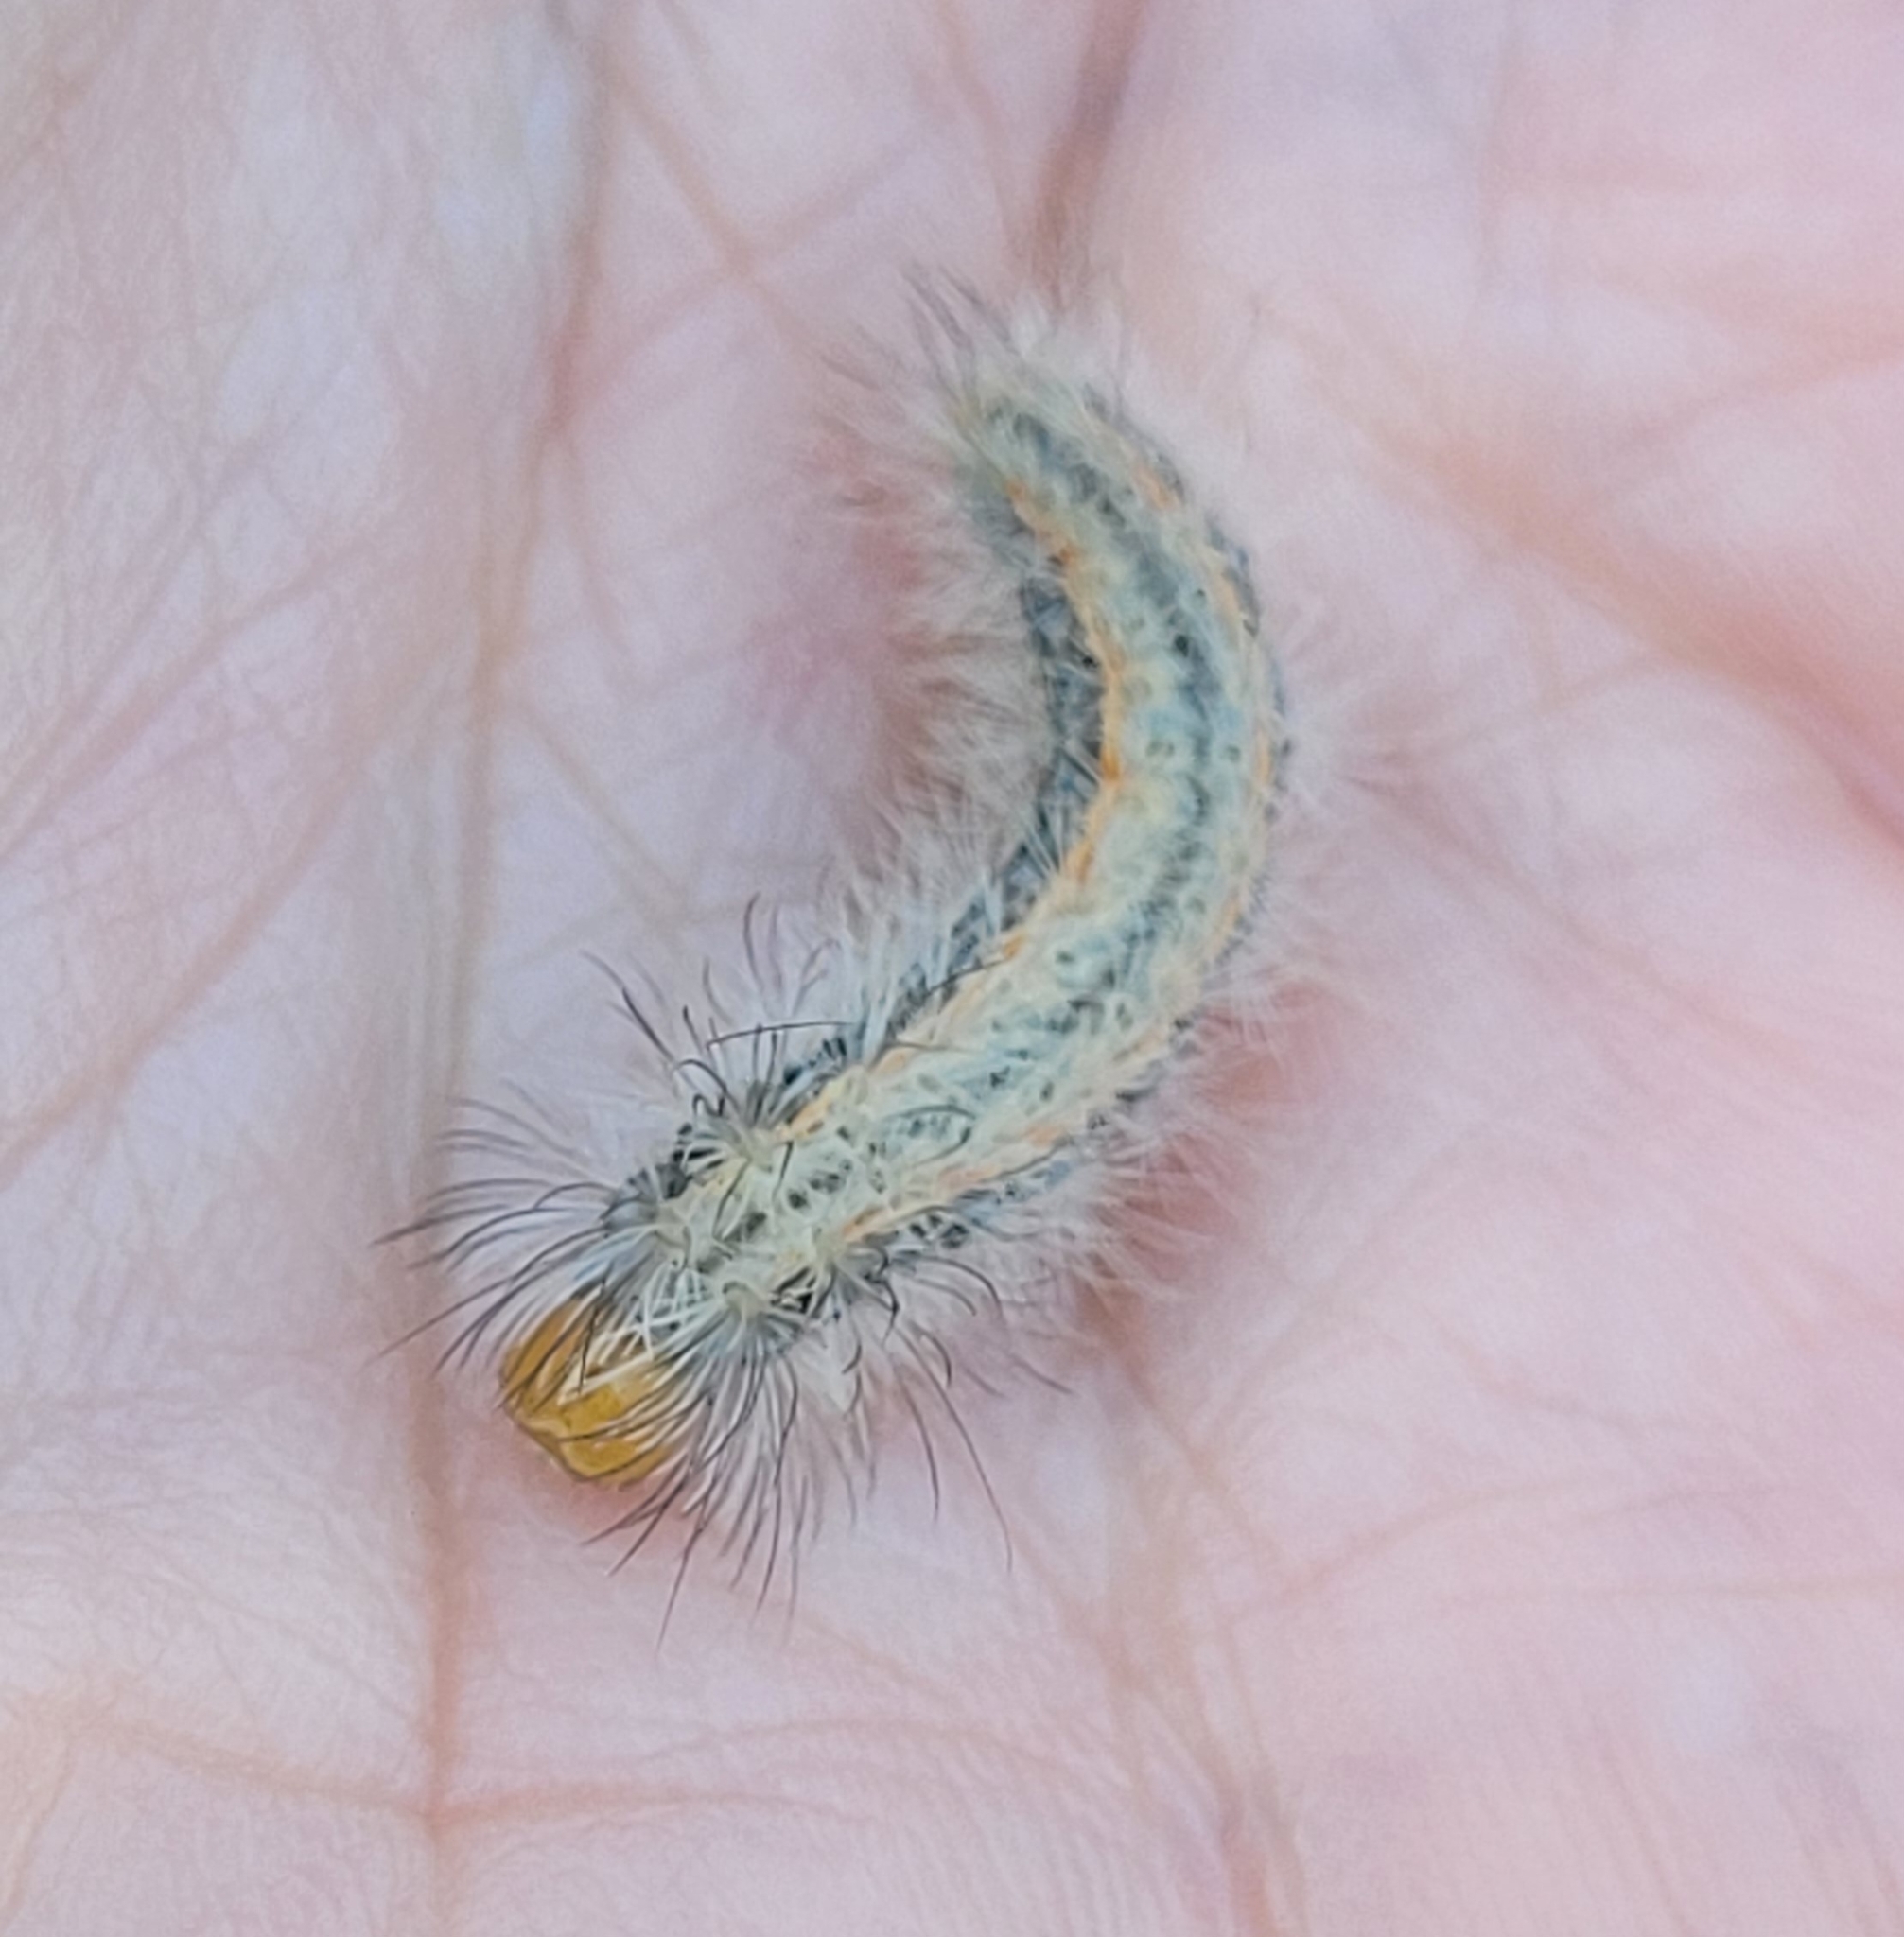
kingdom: Animalia
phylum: Arthropoda
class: Insecta
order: Lepidoptera
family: Erebidae
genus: Cisseps
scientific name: Cisseps fulvicollis
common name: Yellow-collared scape moth
